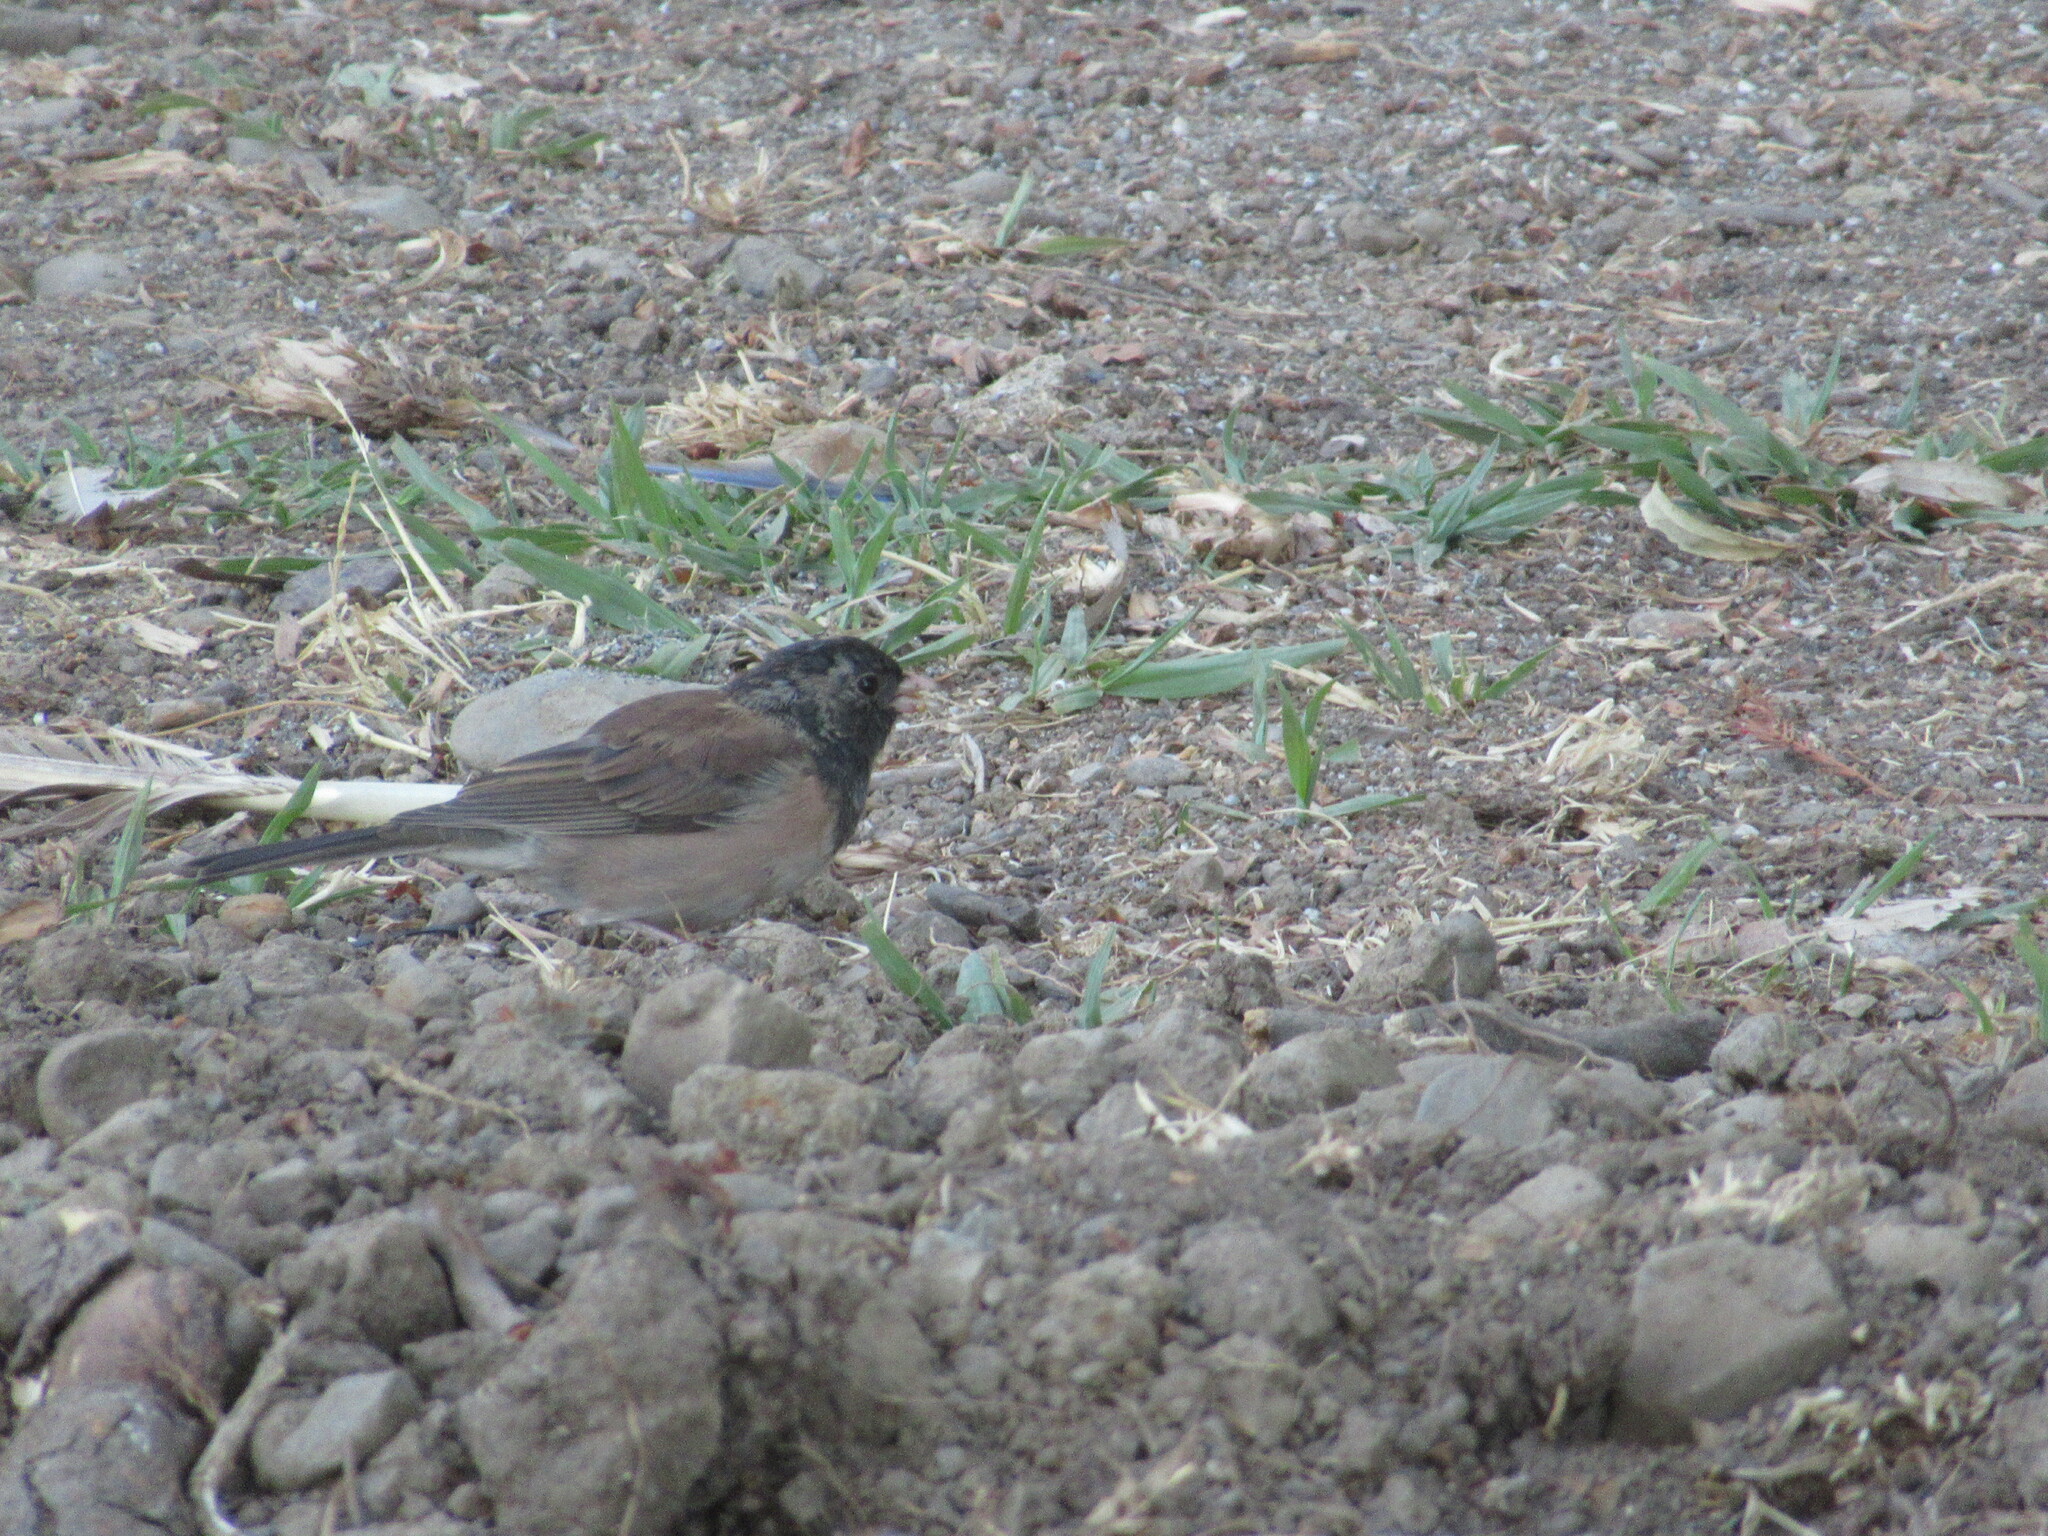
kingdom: Animalia
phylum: Chordata
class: Aves
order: Passeriformes
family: Passerellidae
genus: Junco
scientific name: Junco hyemalis
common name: Dark-eyed junco
